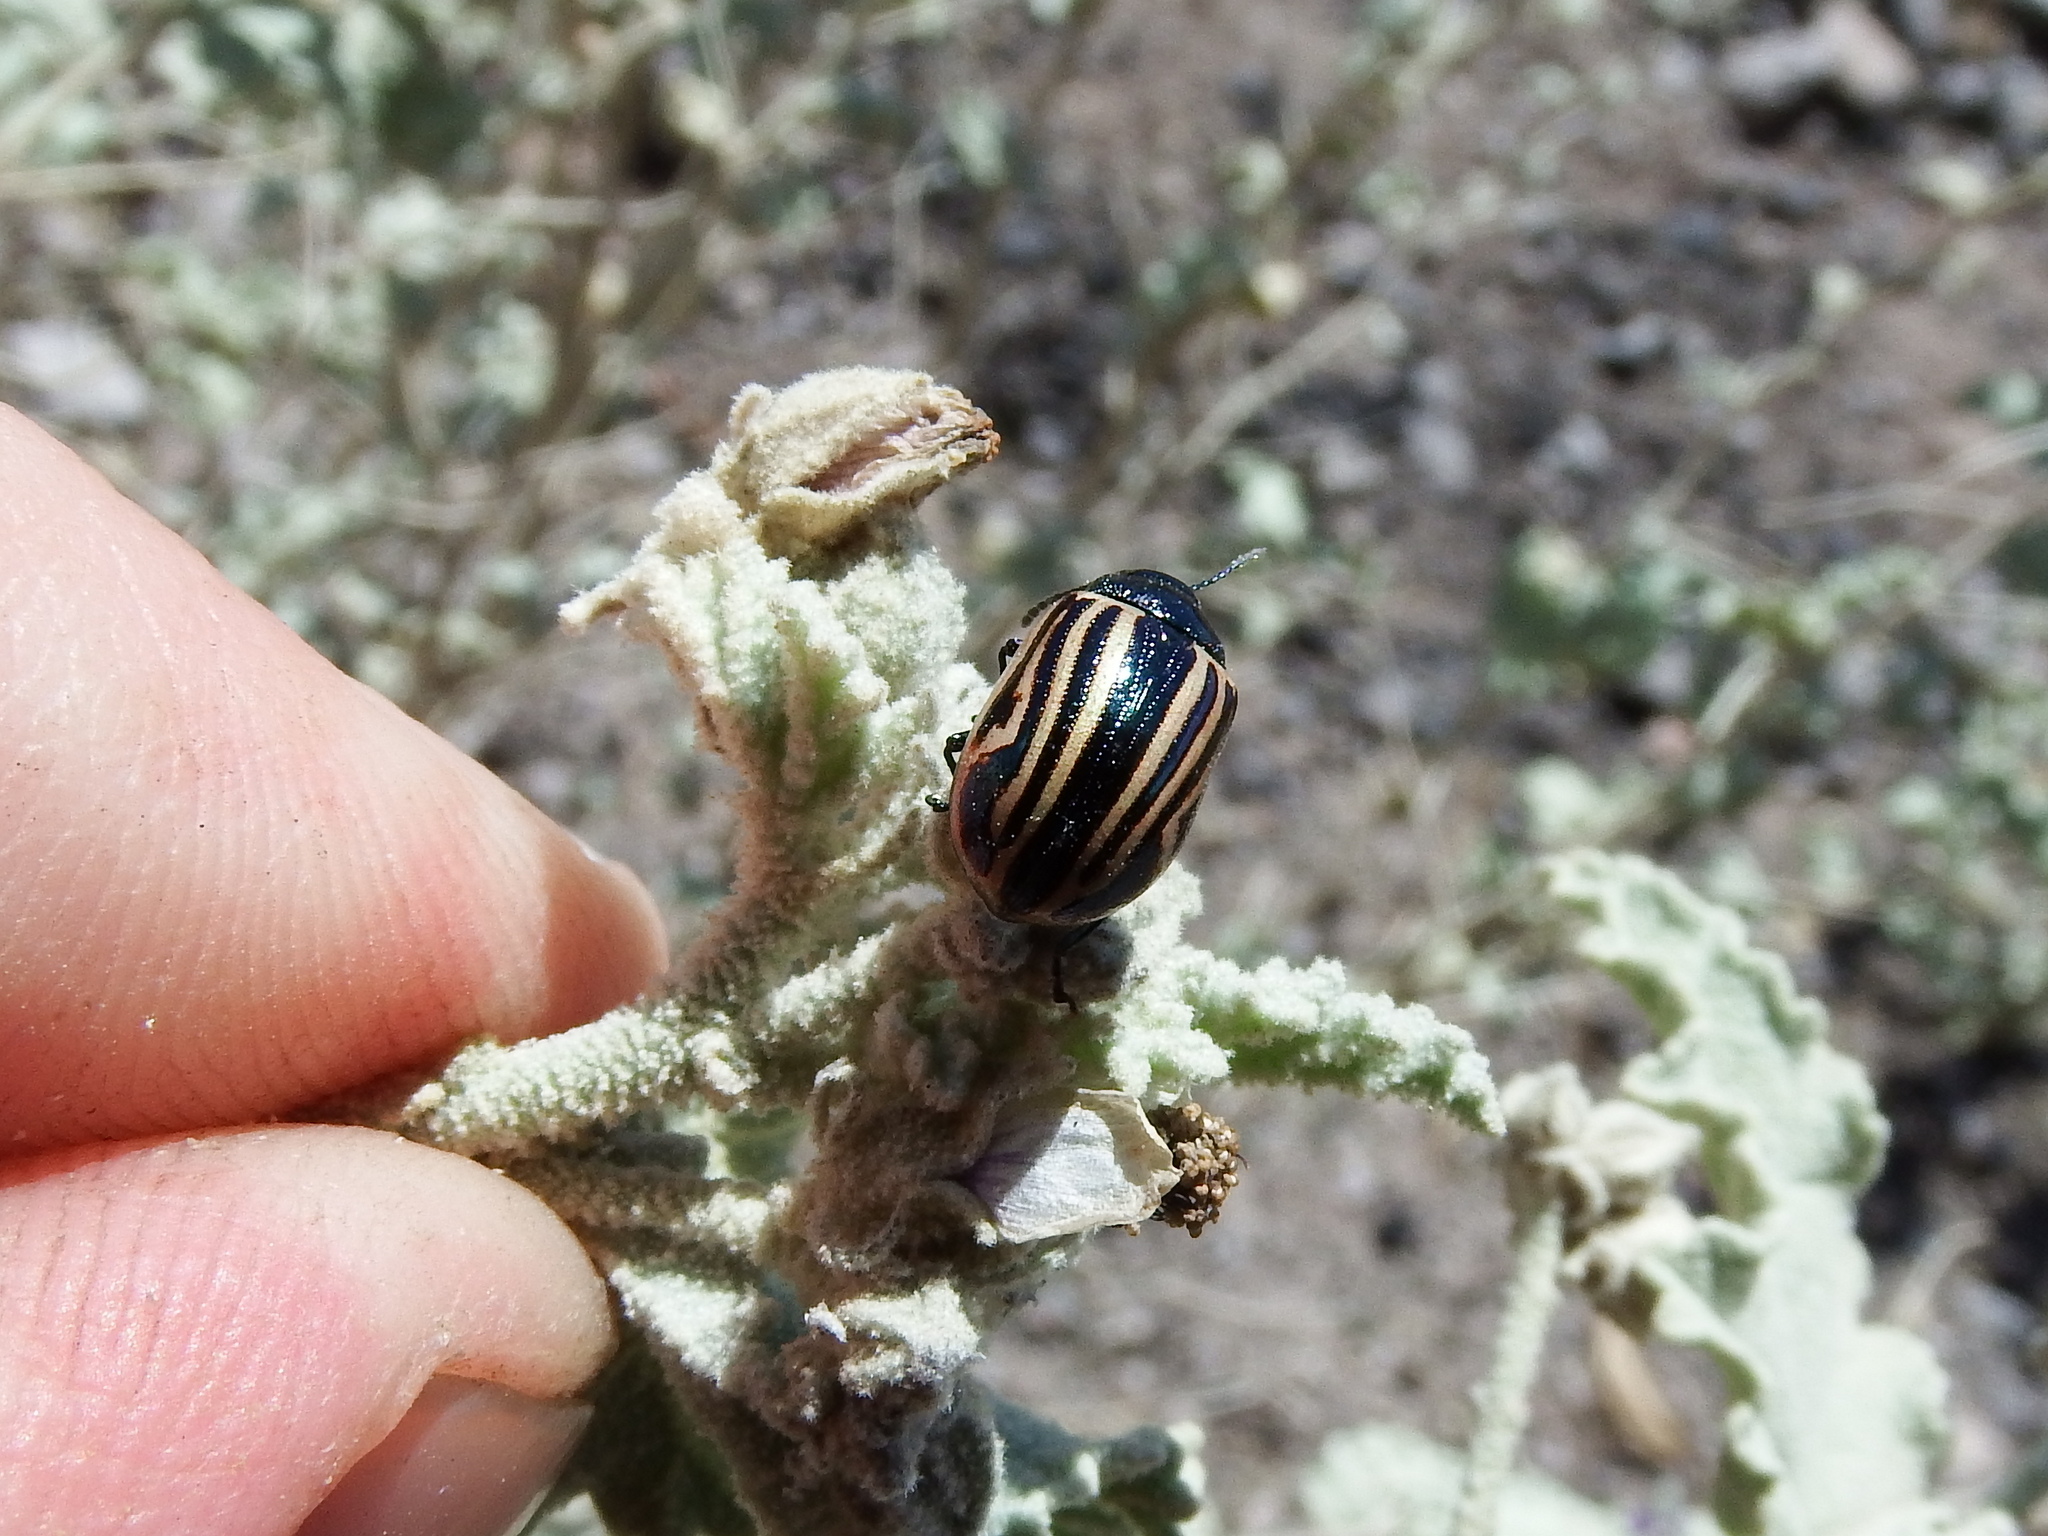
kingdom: Animalia
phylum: Arthropoda
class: Insecta
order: Coleoptera
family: Chrysomelidae
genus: Calligrapha
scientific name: Calligrapha
